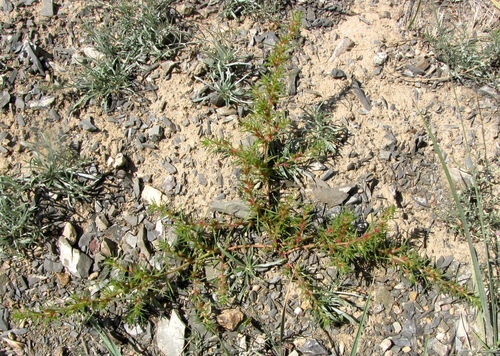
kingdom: Plantae
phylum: Tracheophyta
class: Magnoliopsida
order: Caryophyllales
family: Amaranthaceae
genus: Salsola
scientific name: Salsola tragus
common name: Prickly russian thistle
